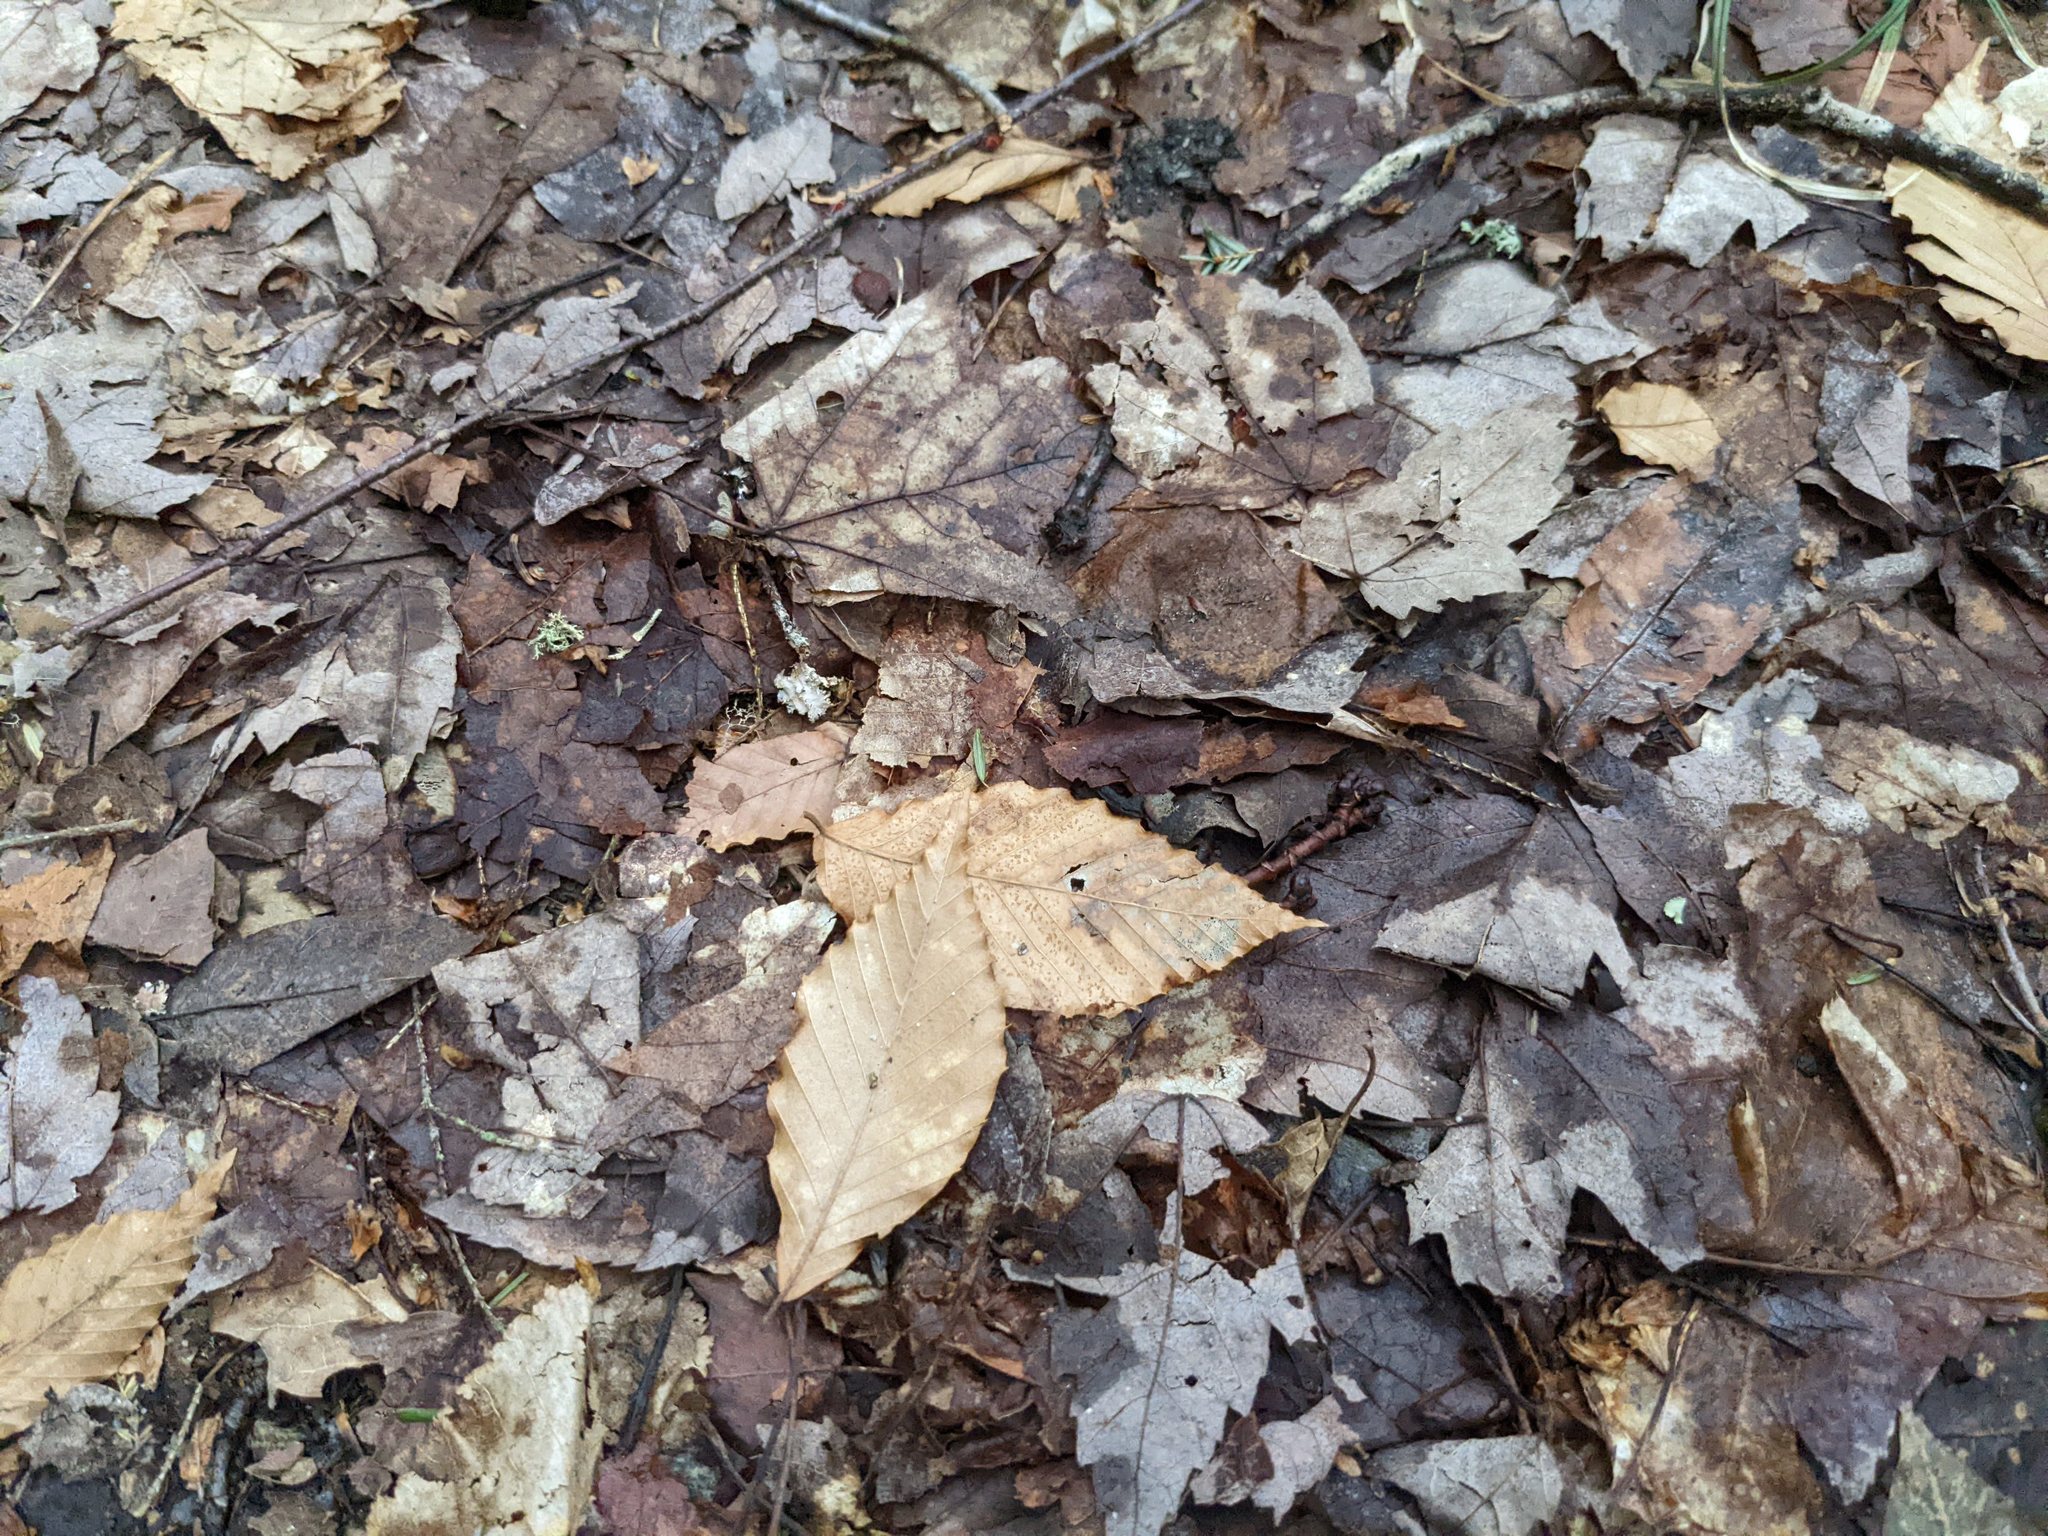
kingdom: Plantae
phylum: Tracheophyta
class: Magnoliopsida
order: Fagales
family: Fagaceae
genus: Fagus
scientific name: Fagus grandifolia
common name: American beech
